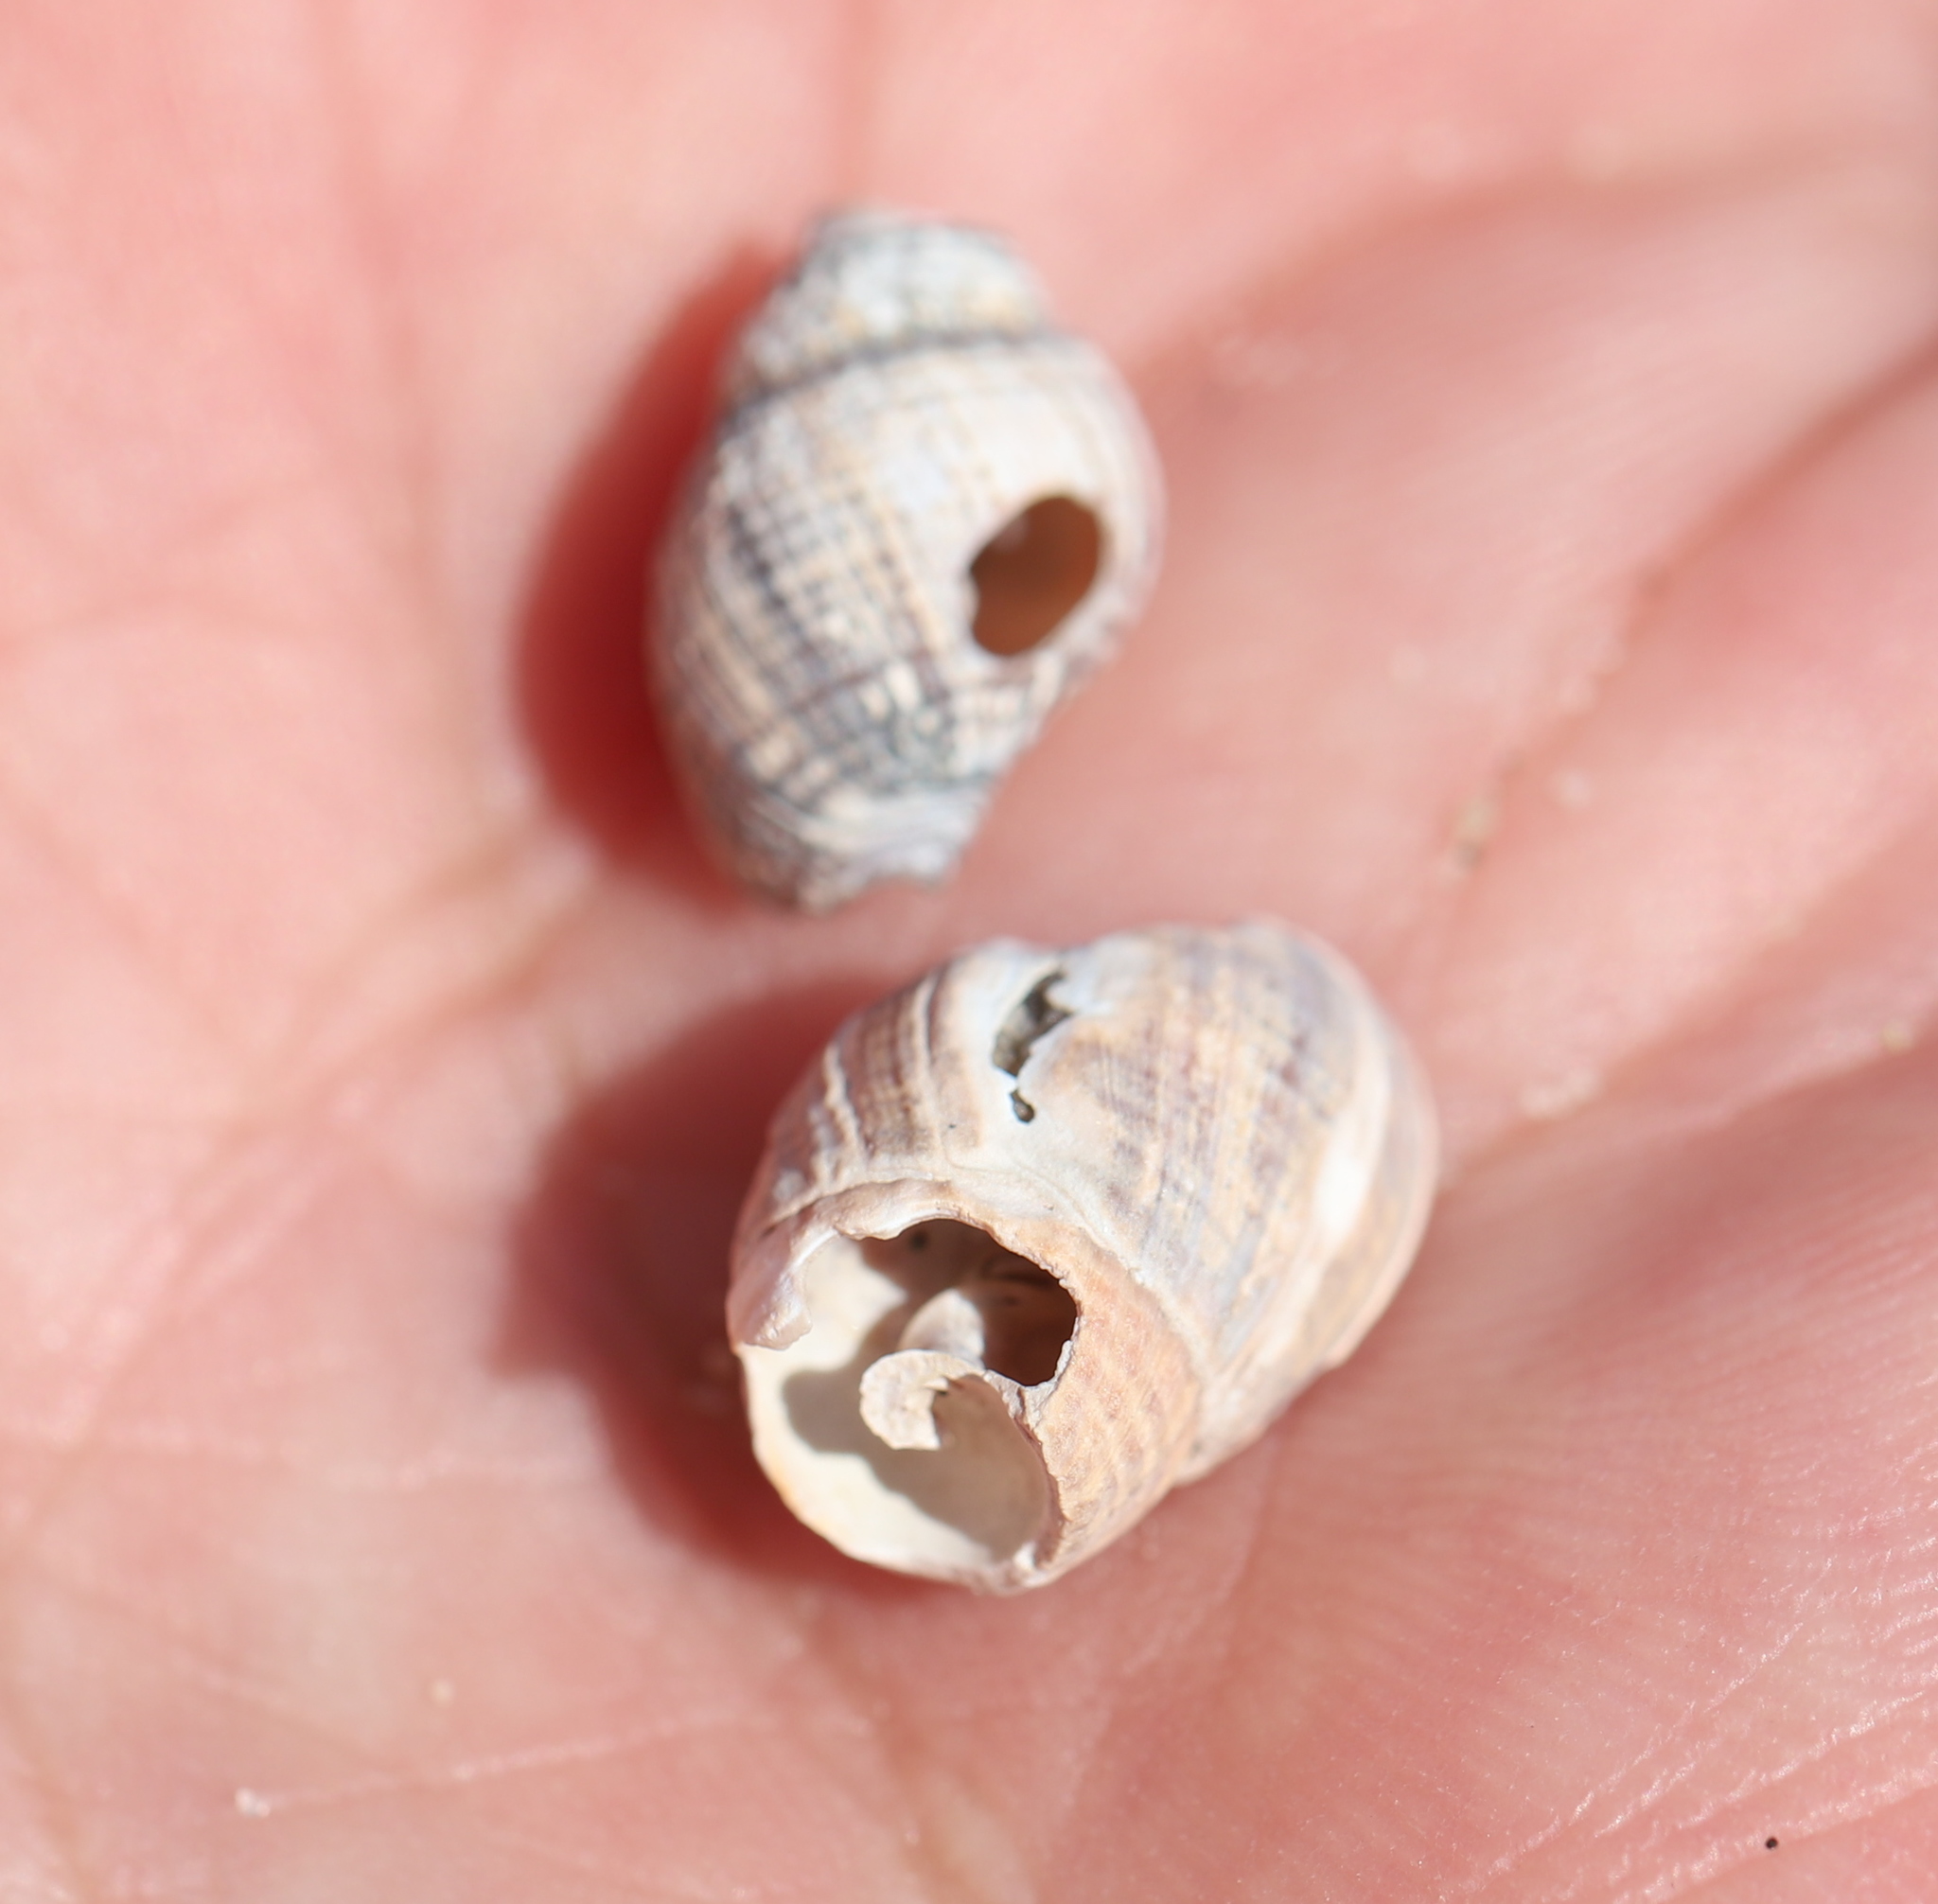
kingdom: Animalia
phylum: Mollusca
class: Gastropoda
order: Neogastropoda
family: Nassariidae
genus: Ilyanassa
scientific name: Ilyanassa obsoleta
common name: Eastern mudsnail
